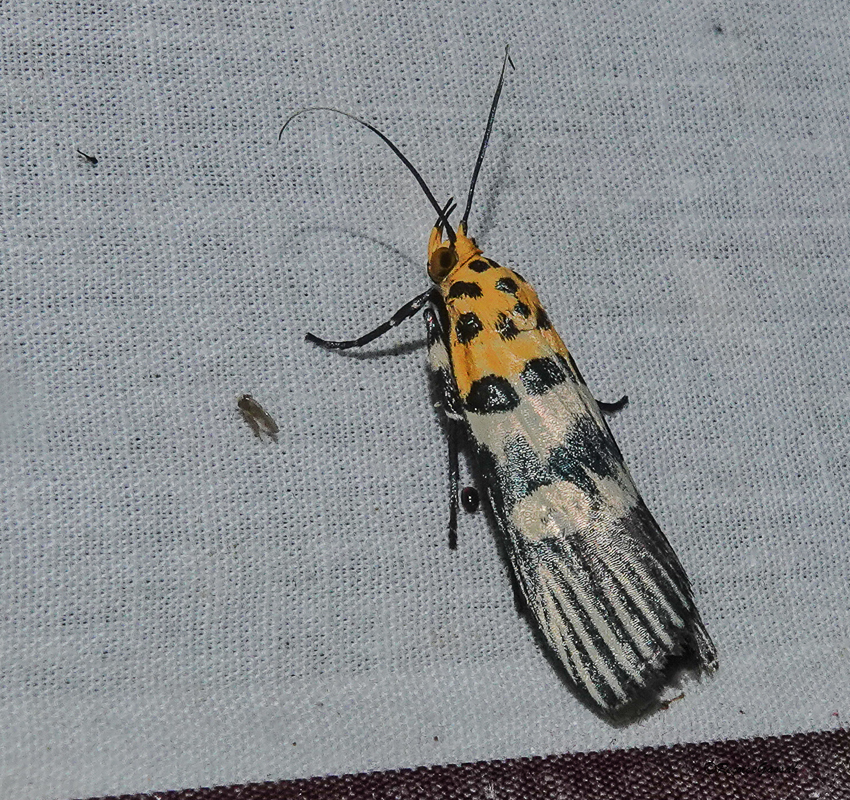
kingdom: Animalia
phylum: Arthropoda
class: Insecta
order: Lepidoptera
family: Pyralidae
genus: Vitessa
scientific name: Vitessa suradeva
